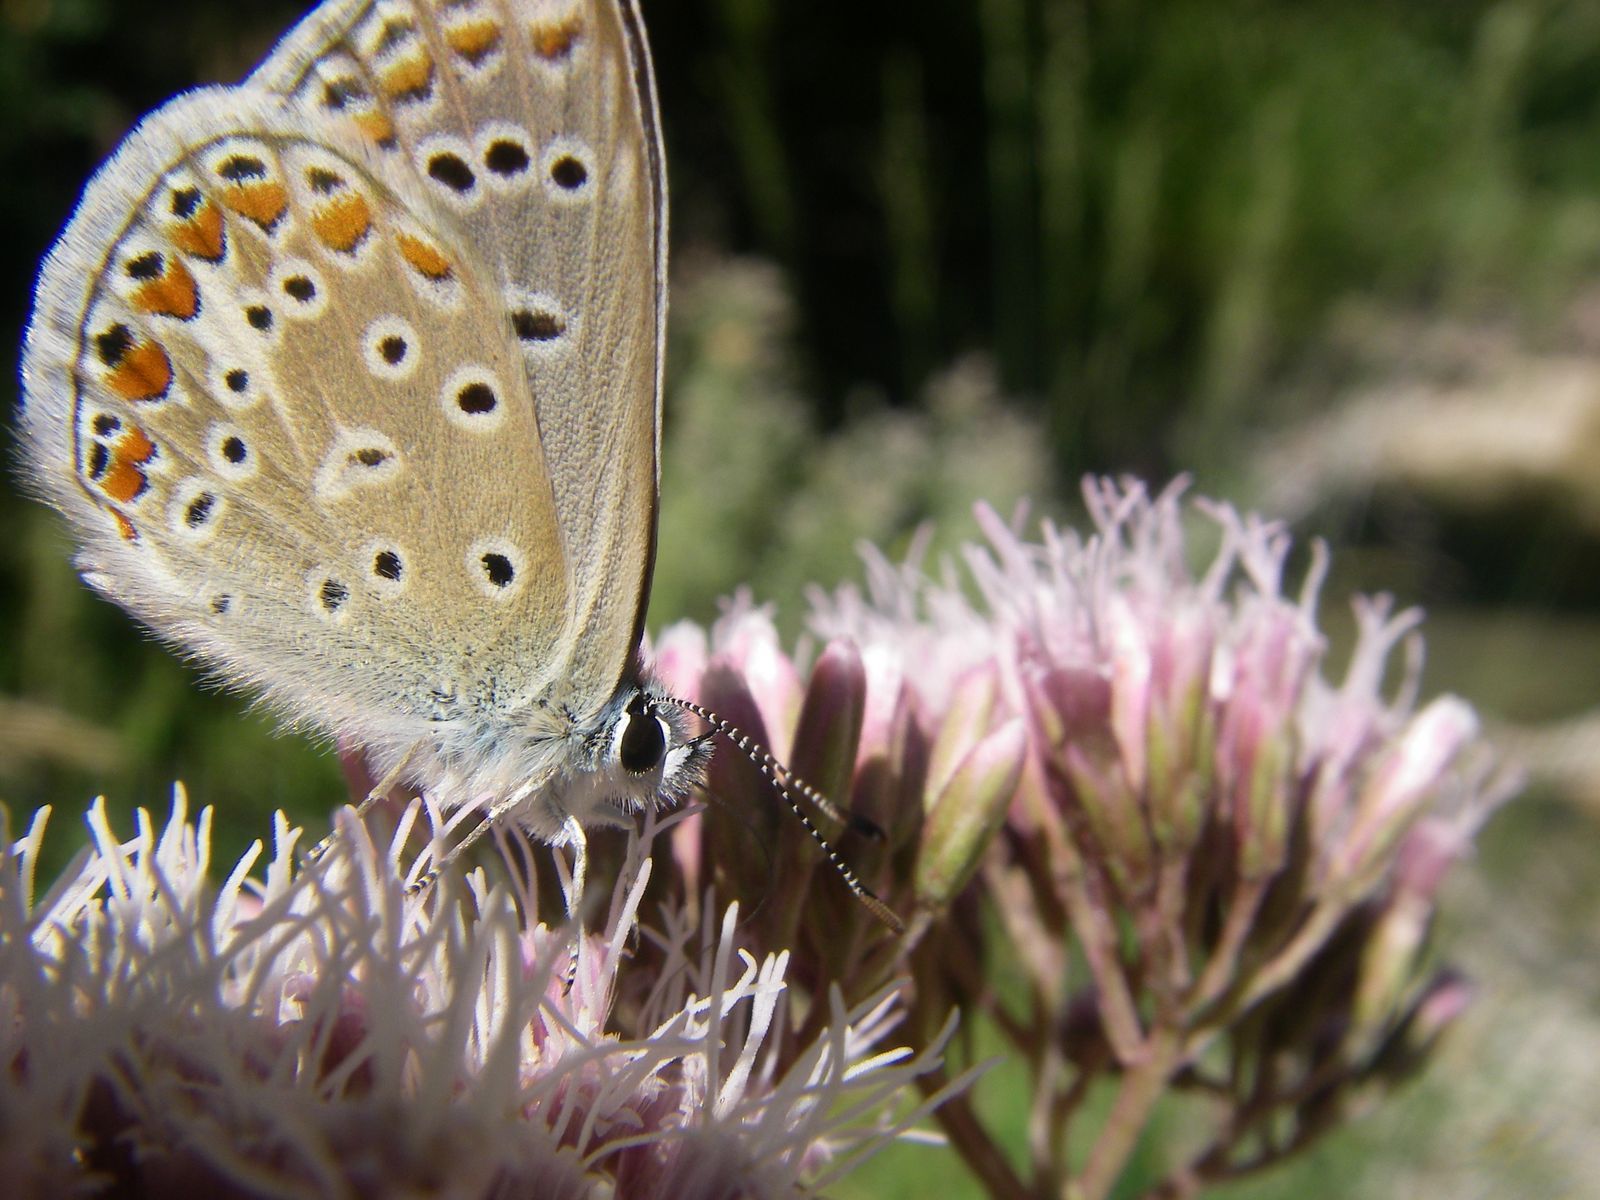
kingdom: Animalia
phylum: Arthropoda
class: Insecta
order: Lepidoptera
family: Lycaenidae
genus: Polyommatus
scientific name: Polyommatus icarus
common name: Common blue
